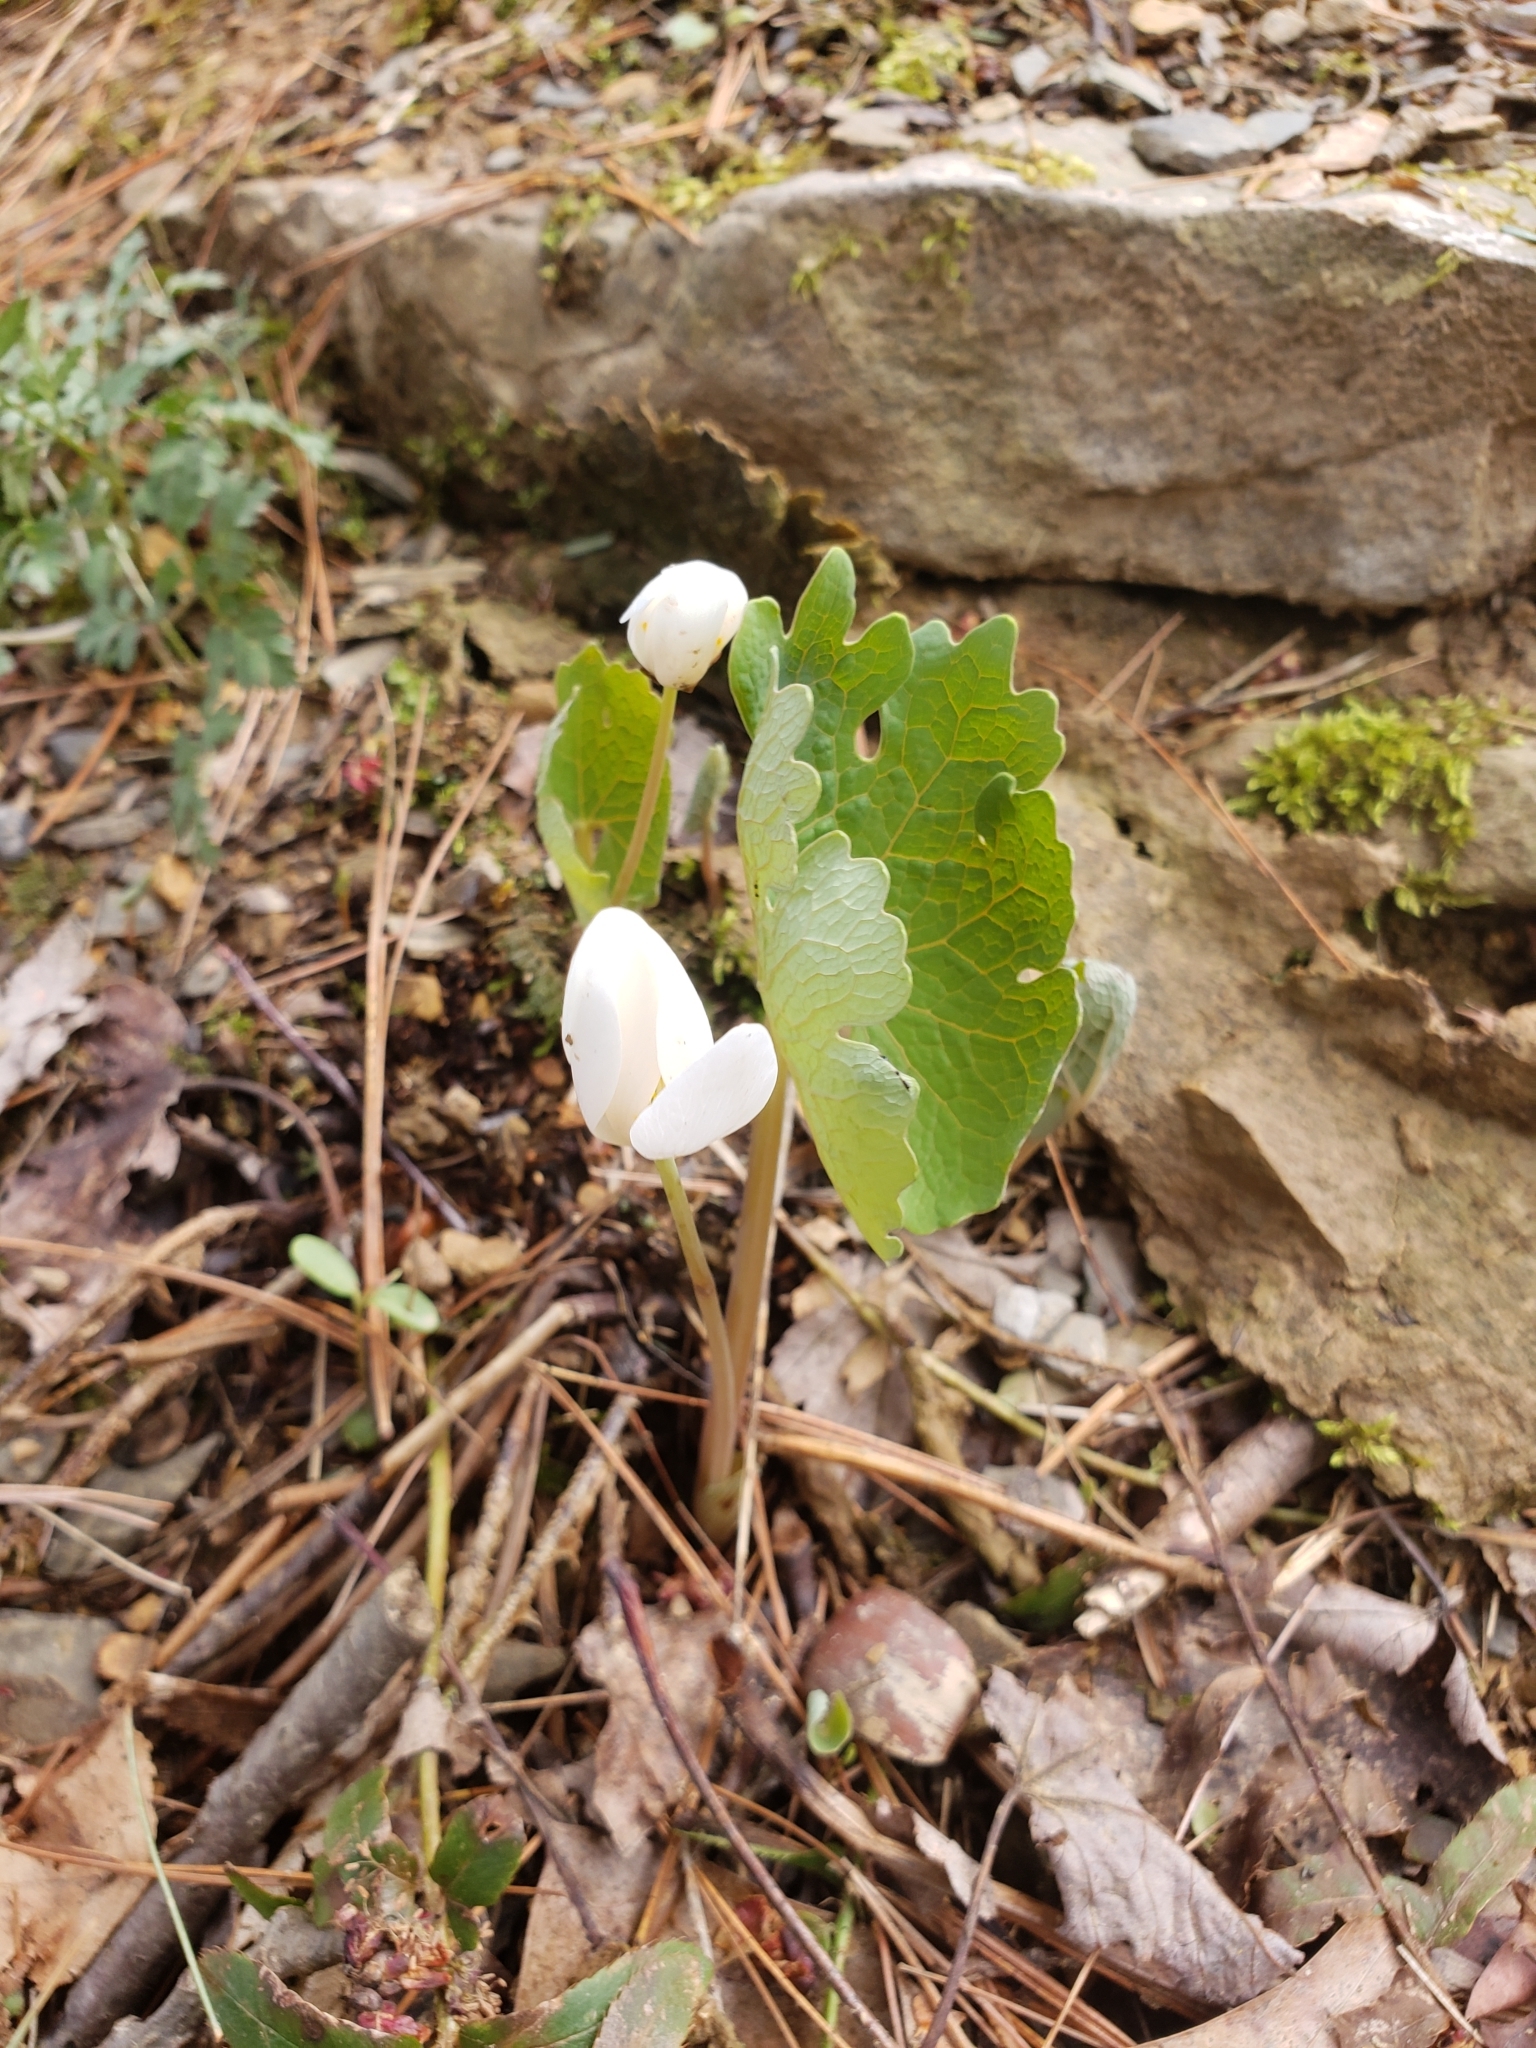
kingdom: Plantae
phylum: Tracheophyta
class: Magnoliopsida
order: Ranunculales
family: Papaveraceae
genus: Sanguinaria
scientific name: Sanguinaria canadensis
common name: Bloodroot
